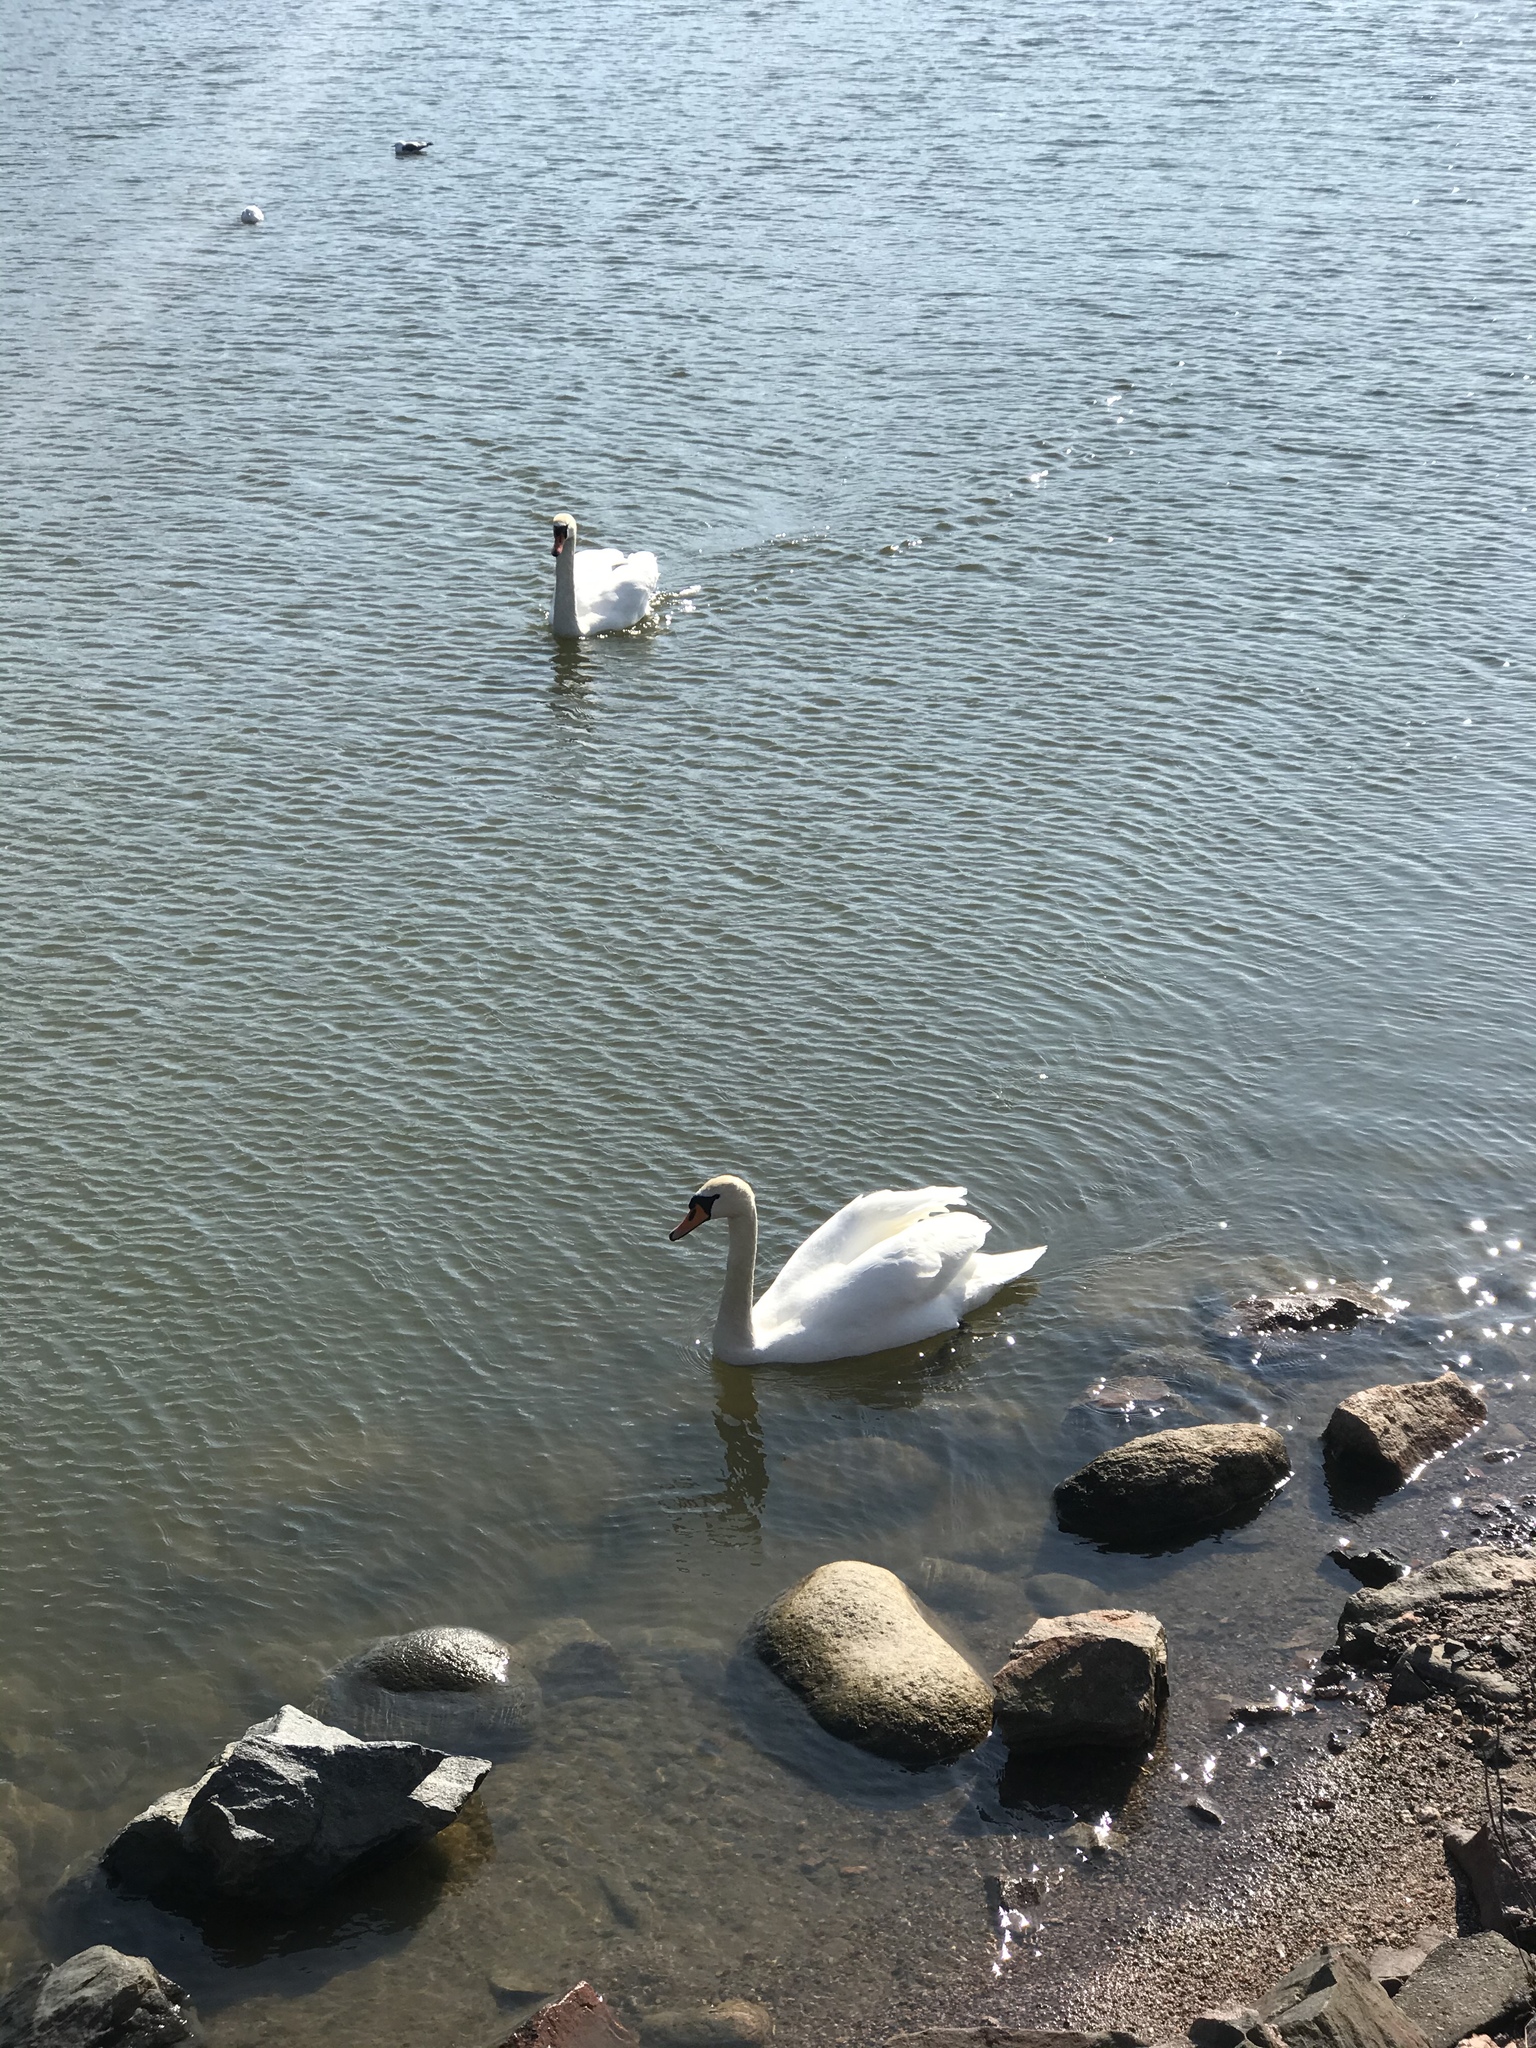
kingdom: Animalia
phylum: Chordata
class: Aves
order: Anseriformes
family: Anatidae
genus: Cygnus
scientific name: Cygnus olor
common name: Mute swan
